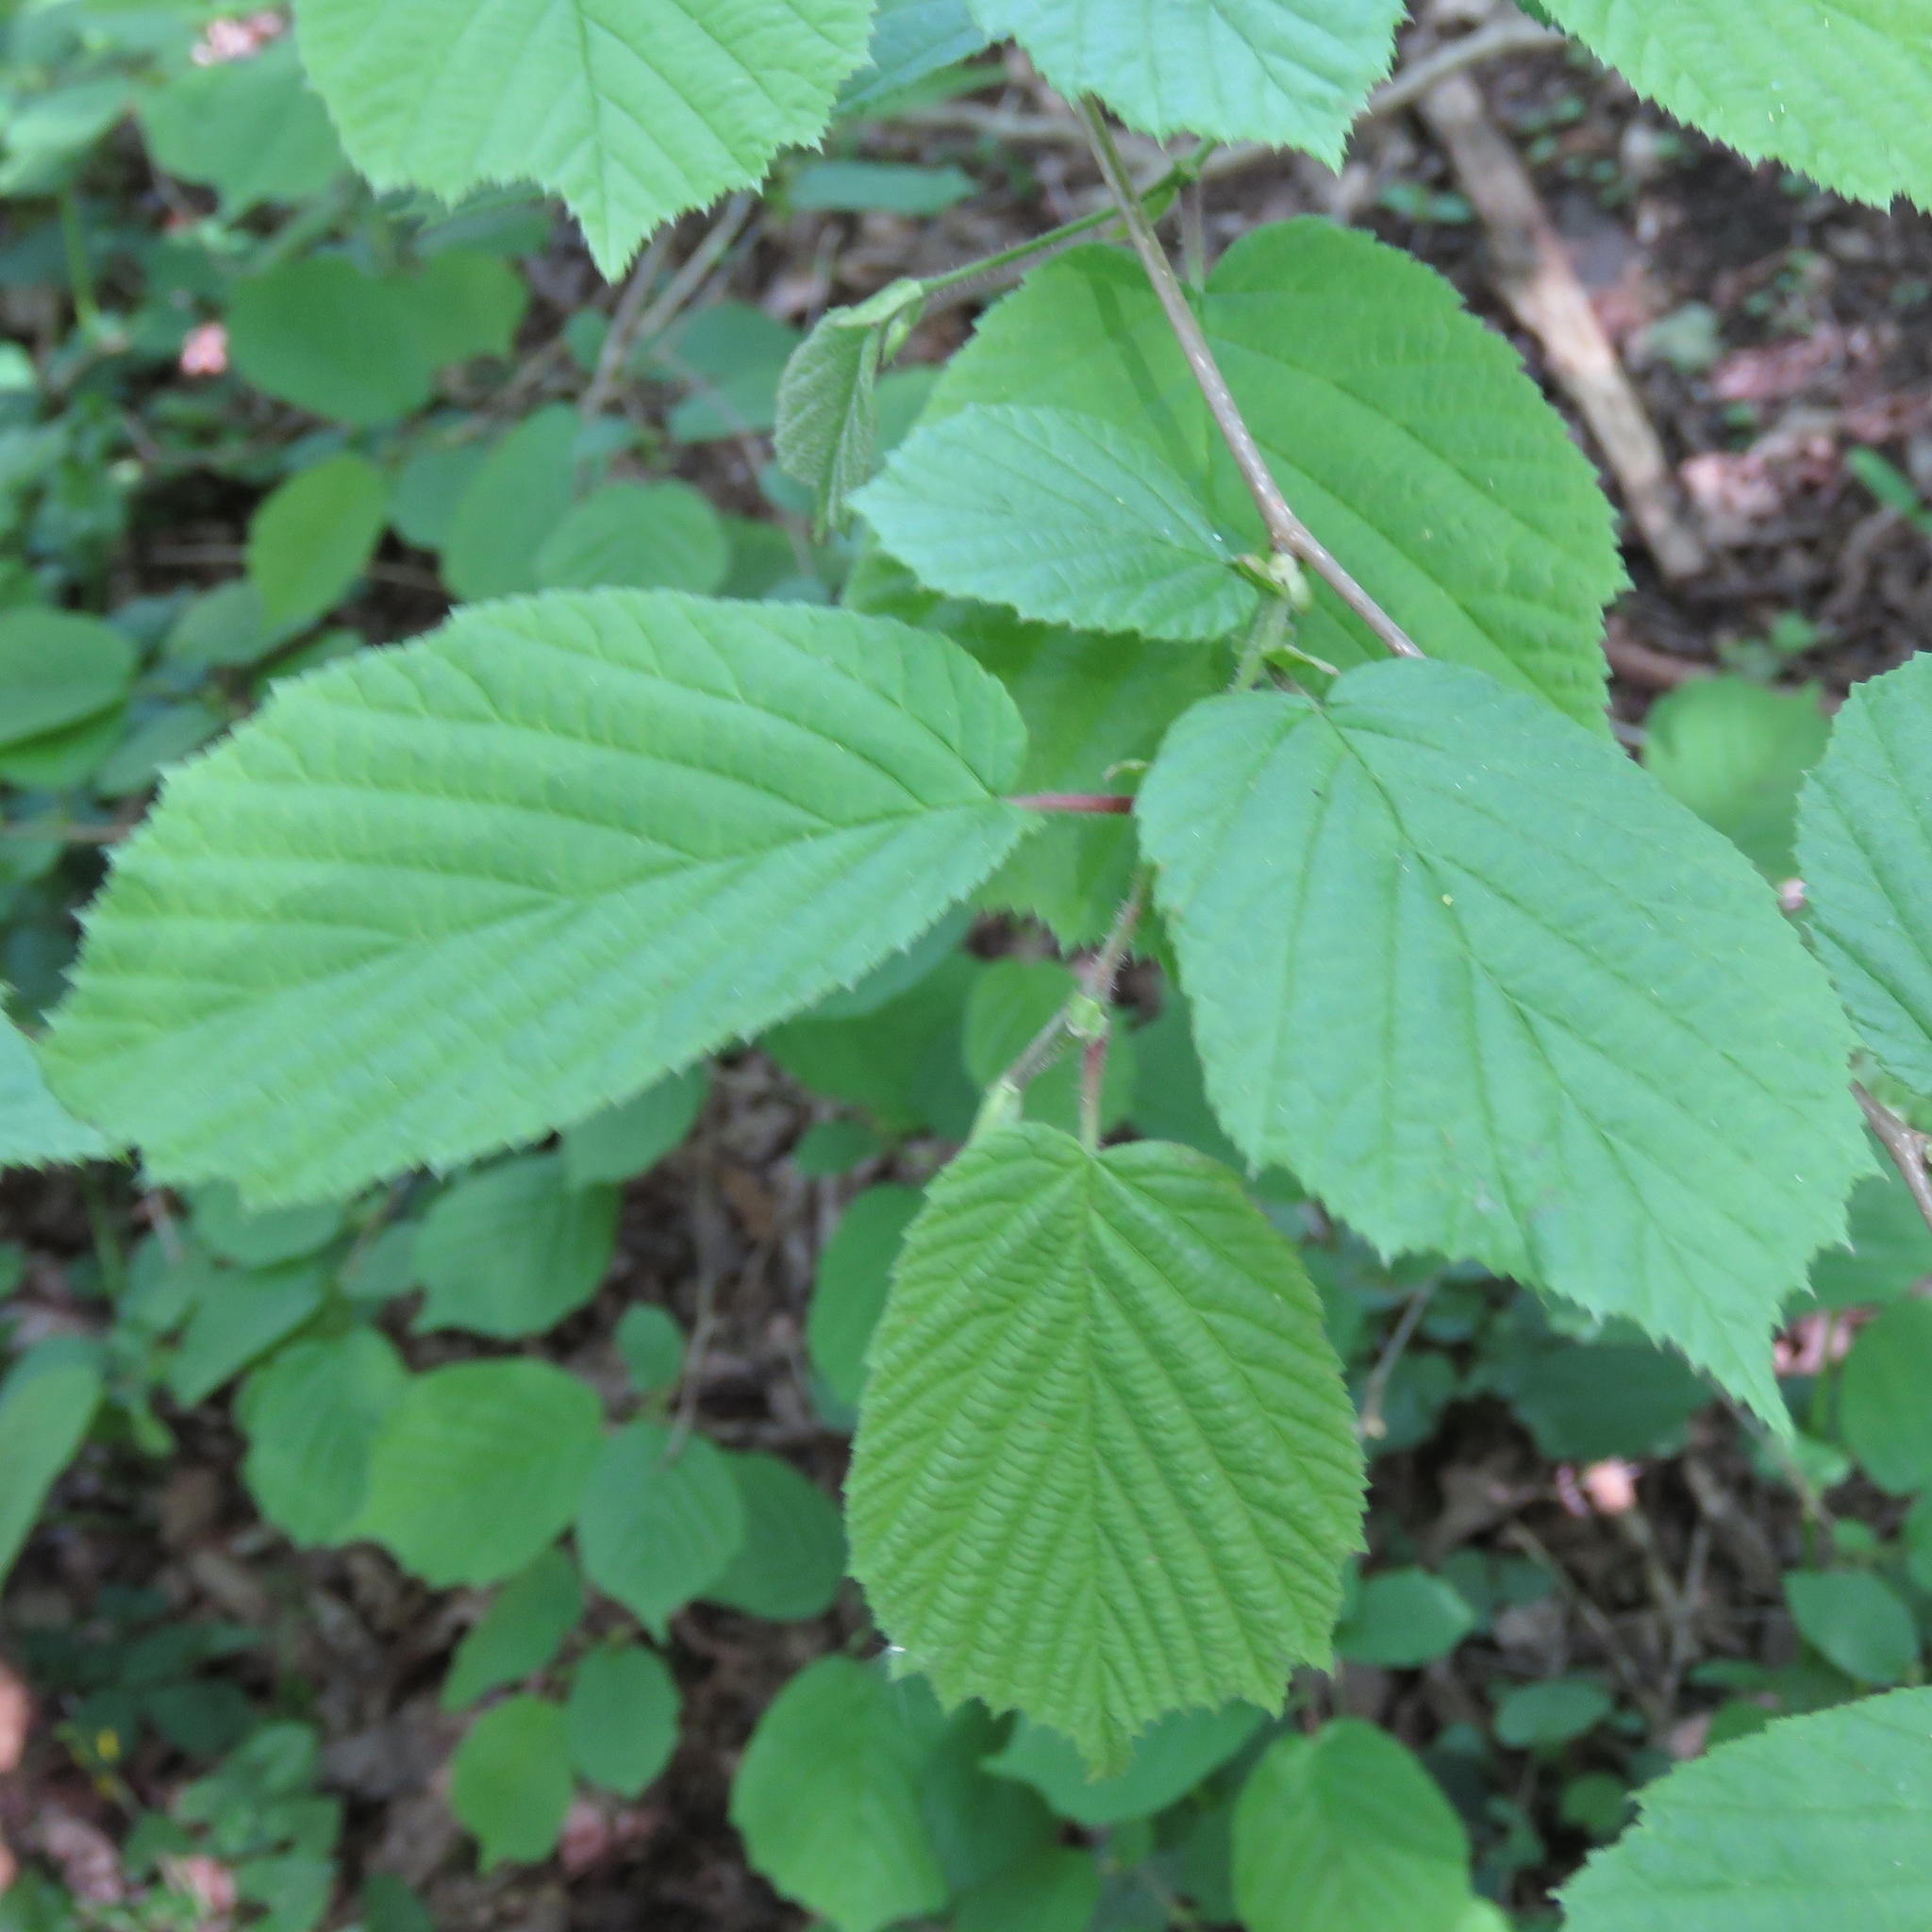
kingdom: Plantae
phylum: Tracheophyta
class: Magnoliopsida
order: Fagales
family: Betulaceae
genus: Corylus
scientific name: Corylus avellana
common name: European hazel
